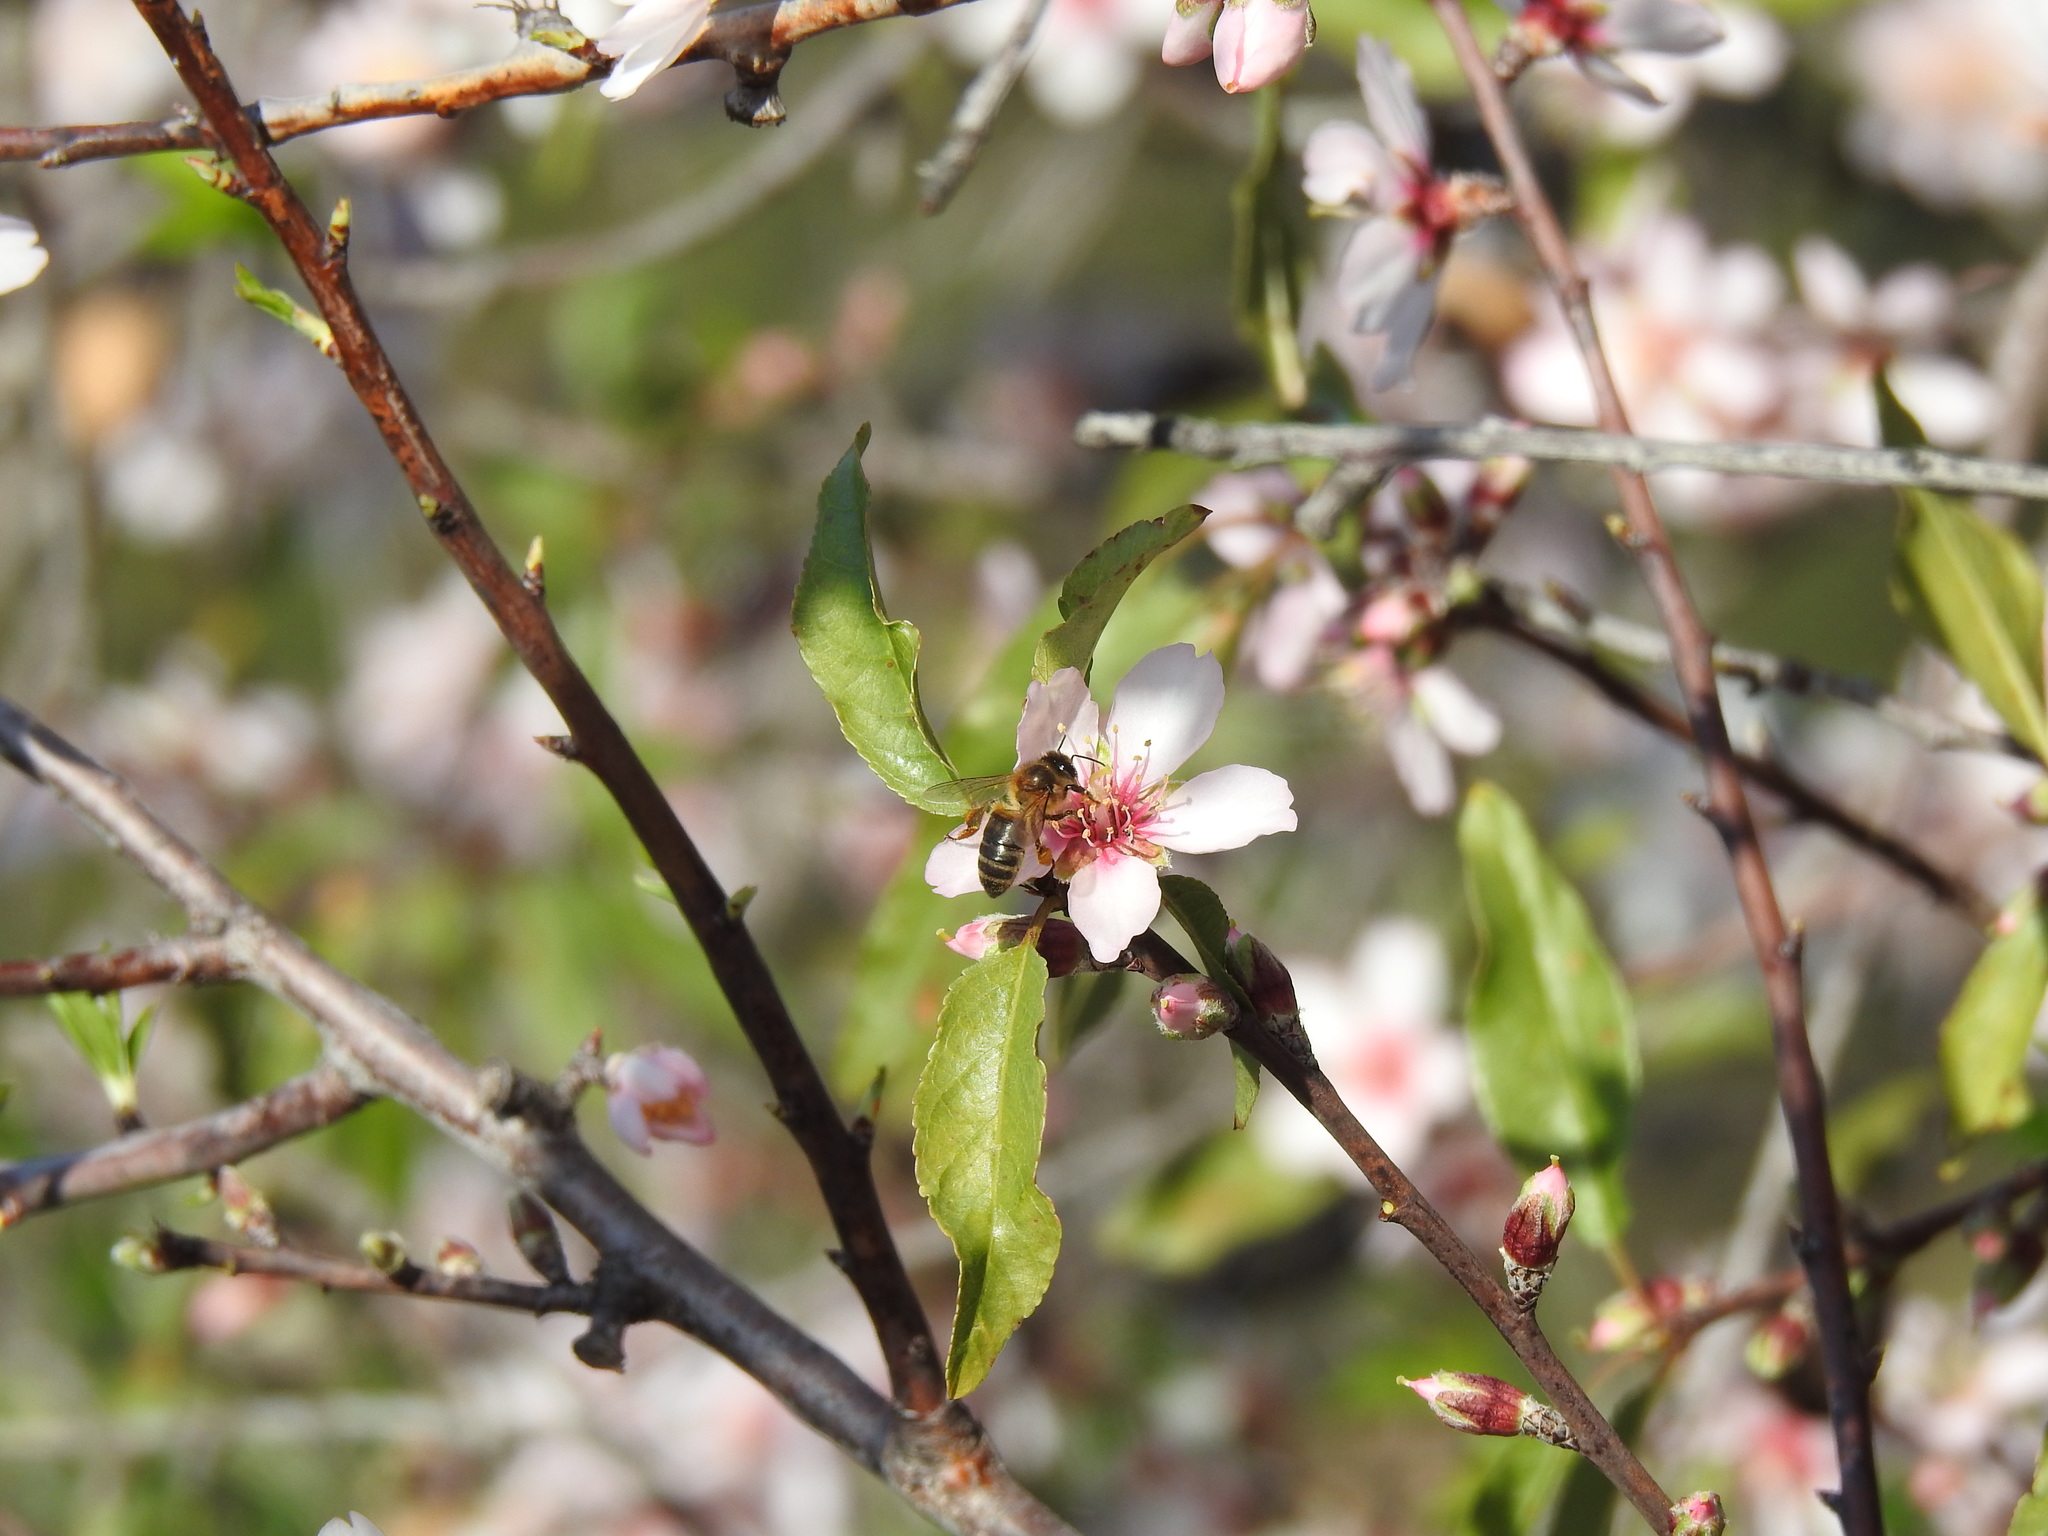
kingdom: Animalia
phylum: Arthropoda
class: Insecta
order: Hymenoptera
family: Apidae
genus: Apis
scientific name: Apis mellifera
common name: Honey bee
